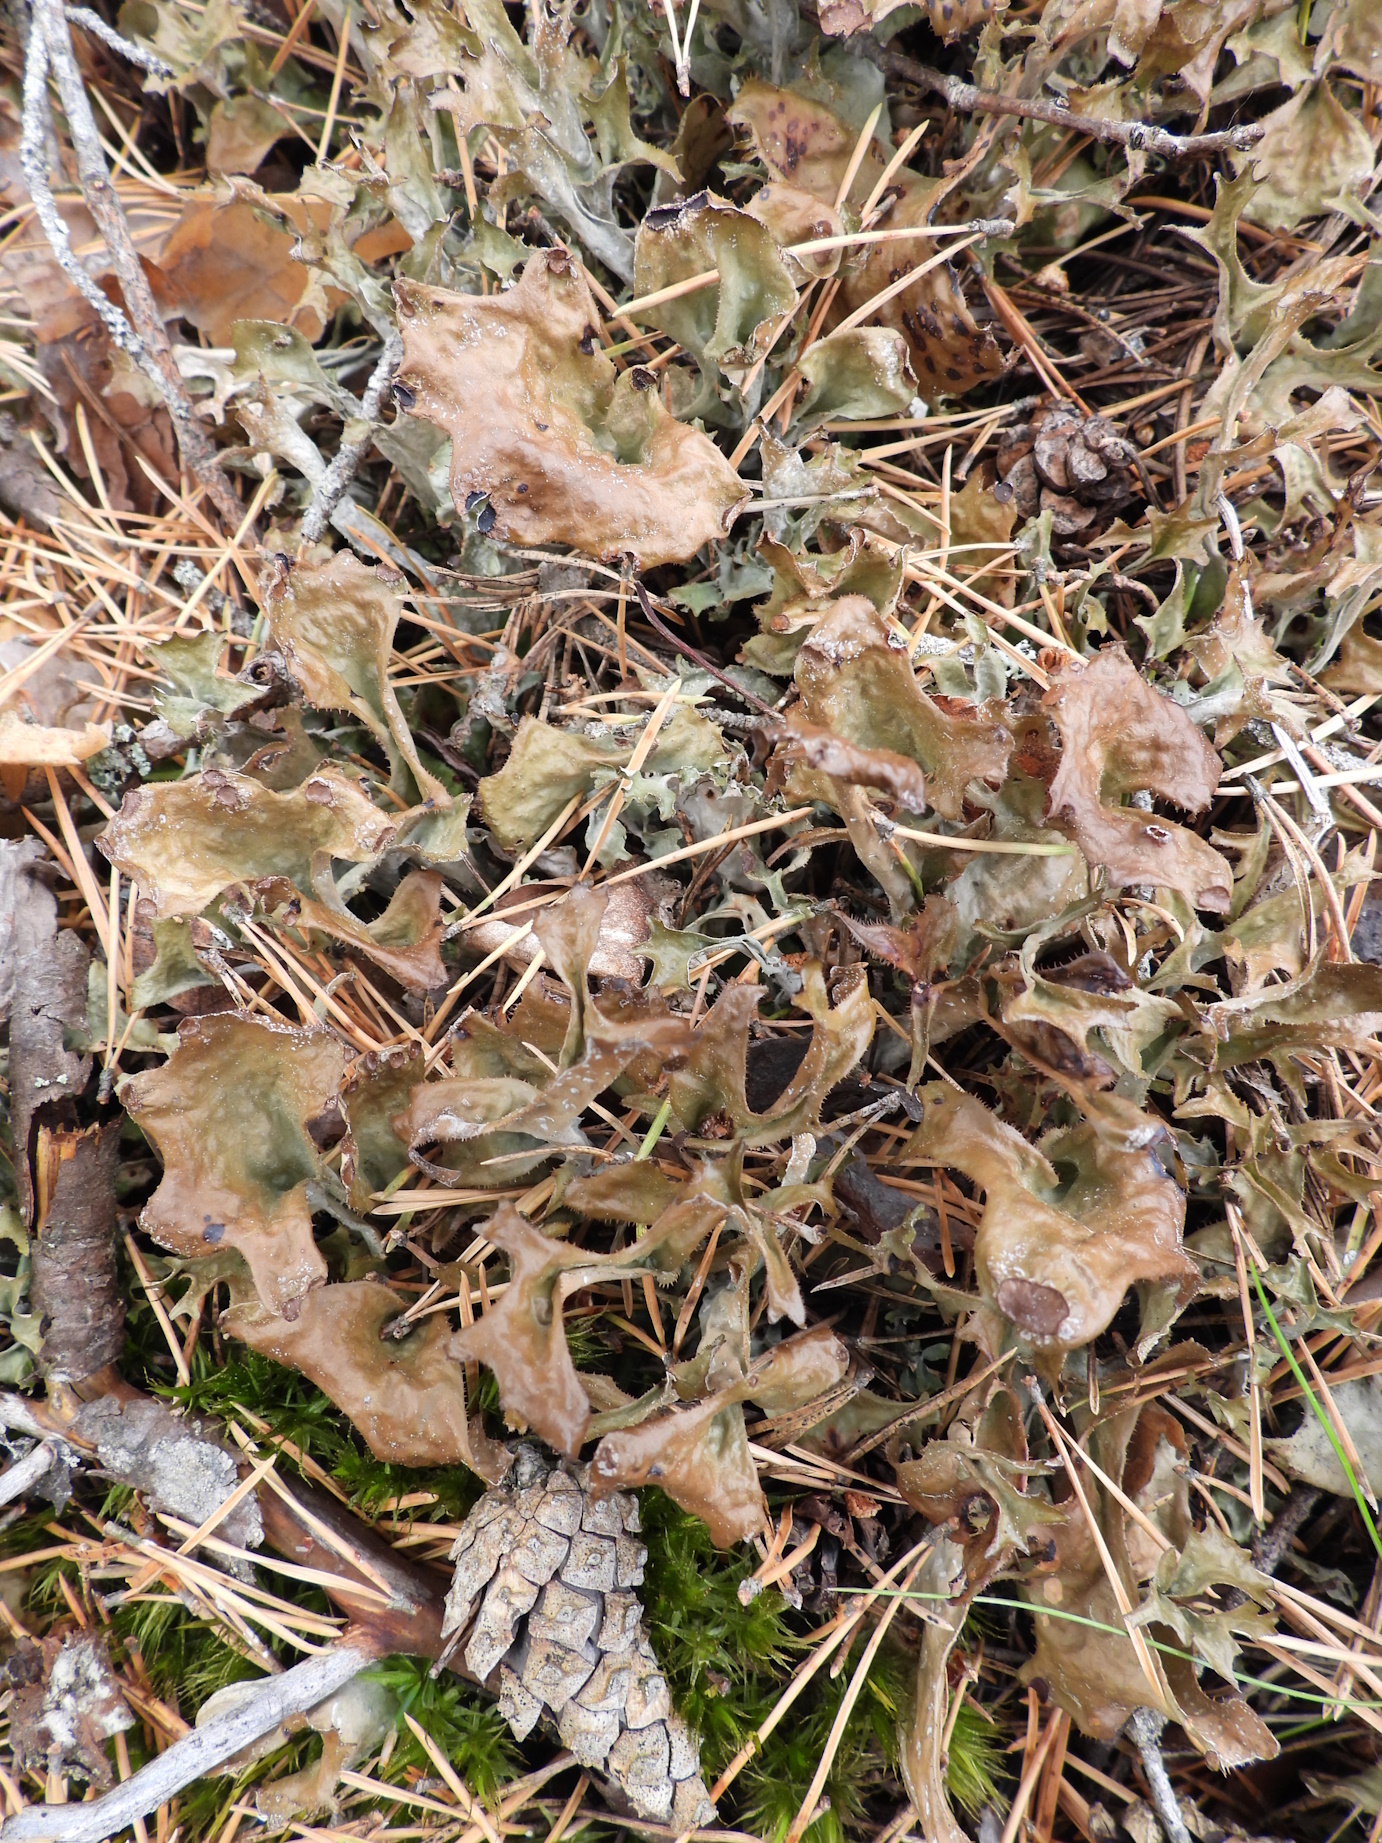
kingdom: Fungi
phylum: Ascomycota
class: Lecanoromycetes
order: Lecanorales
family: Parmeliaceae
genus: Cetraria
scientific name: Cetraria islandica
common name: Iceland lichen
